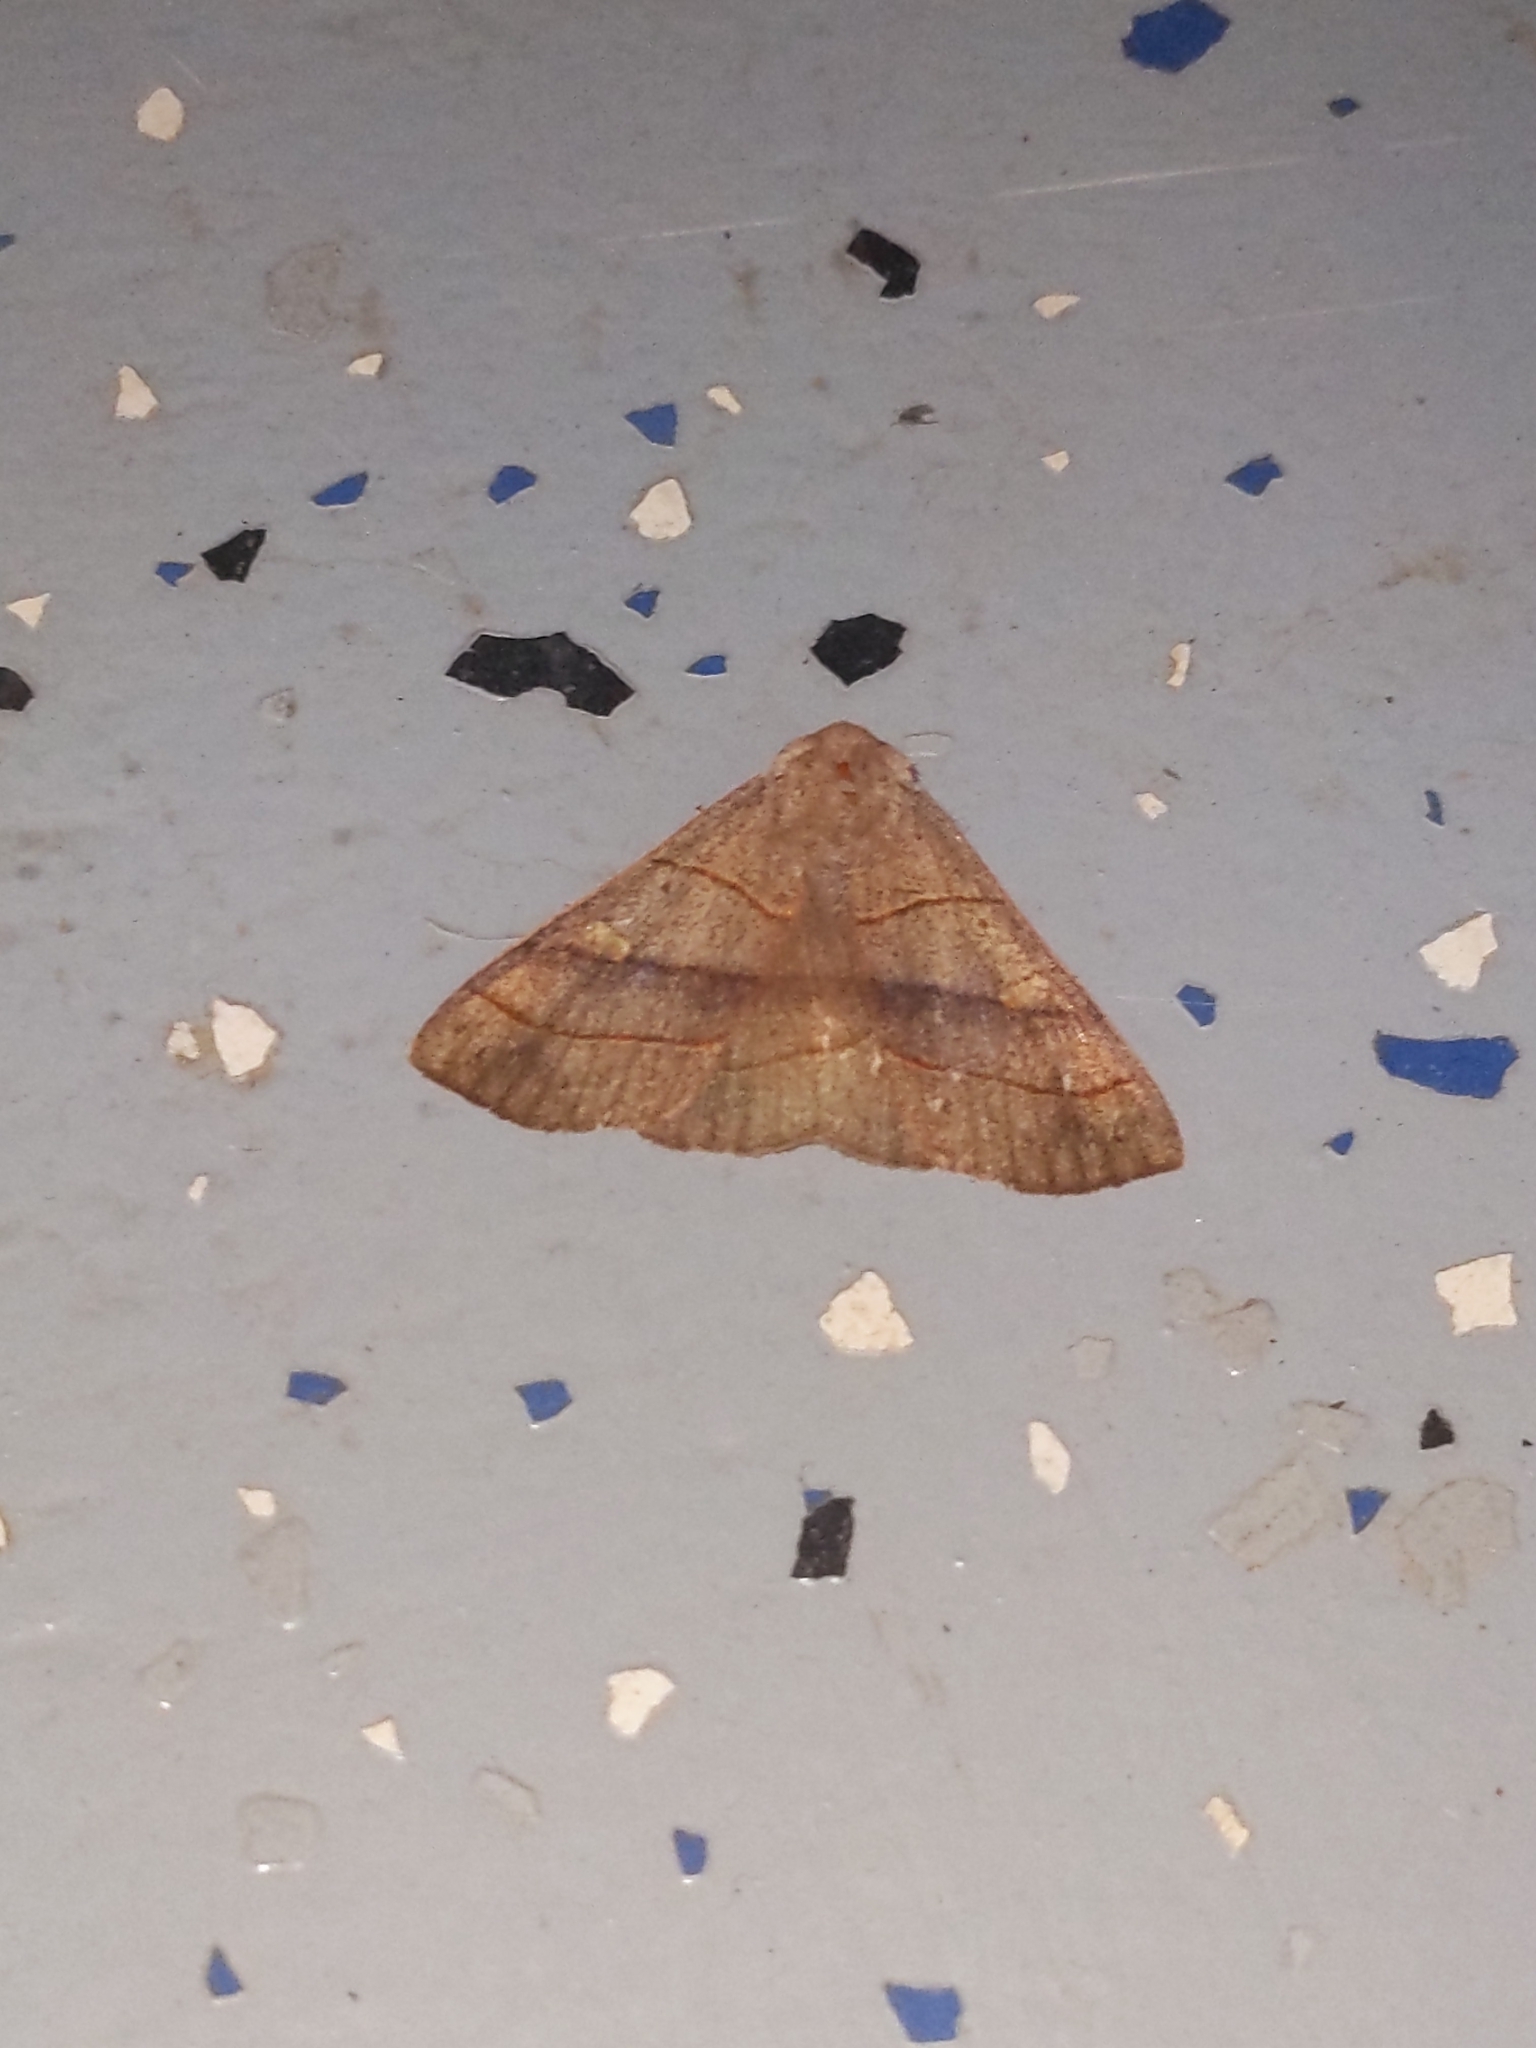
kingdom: Animalia
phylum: Arthropoda
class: Insecta
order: Lepidoptera
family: Erebidae
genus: Panopoda
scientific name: Panopoda rufimargo
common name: Red-lined panopoda moth
